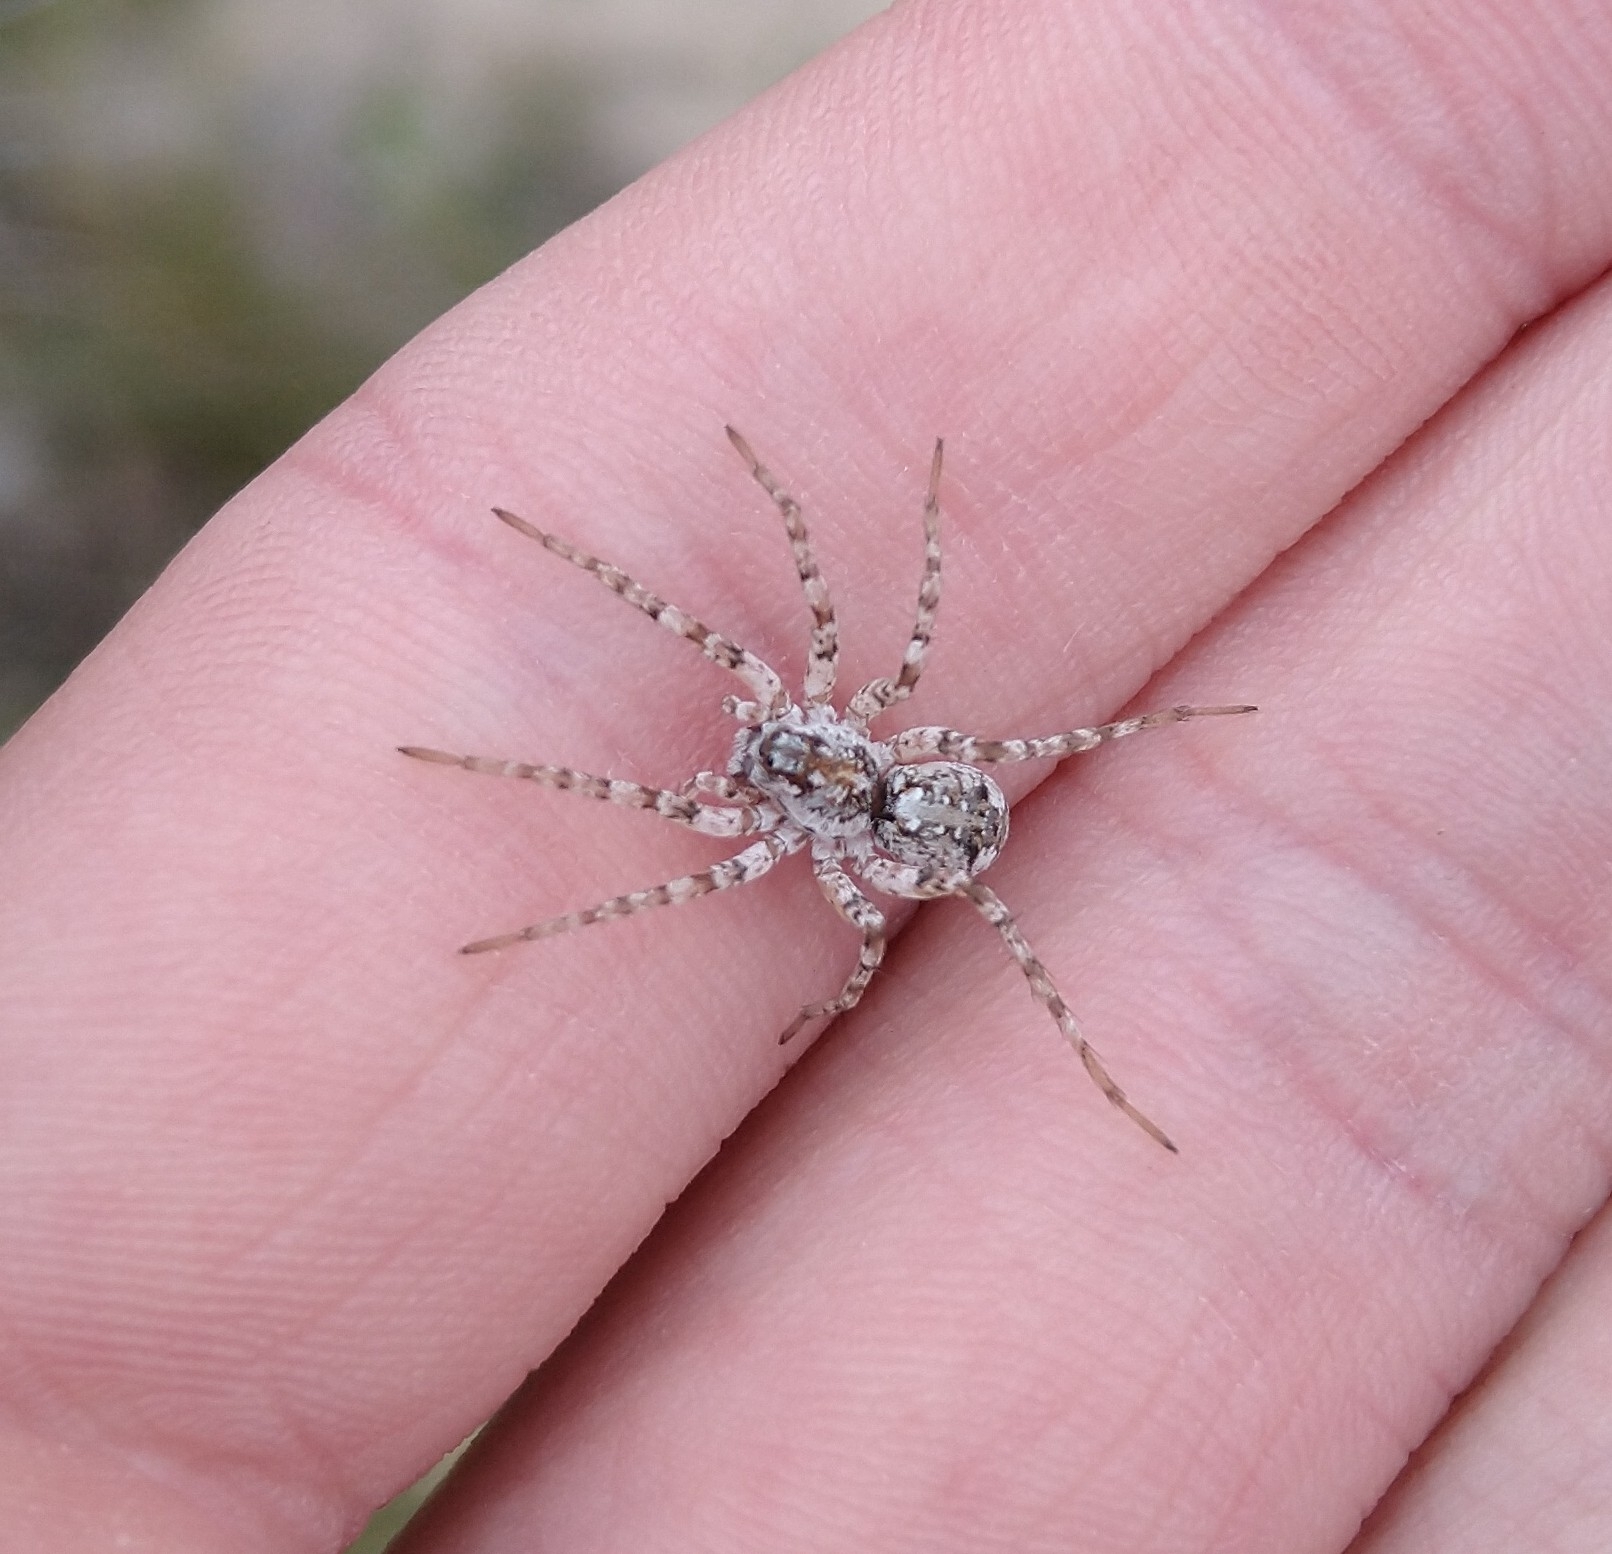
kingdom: Animalia
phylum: Arthropoda
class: Arachnida
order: Araneae
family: Lycosidae
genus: Anoteropsis
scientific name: Anoteropsis litoralis
